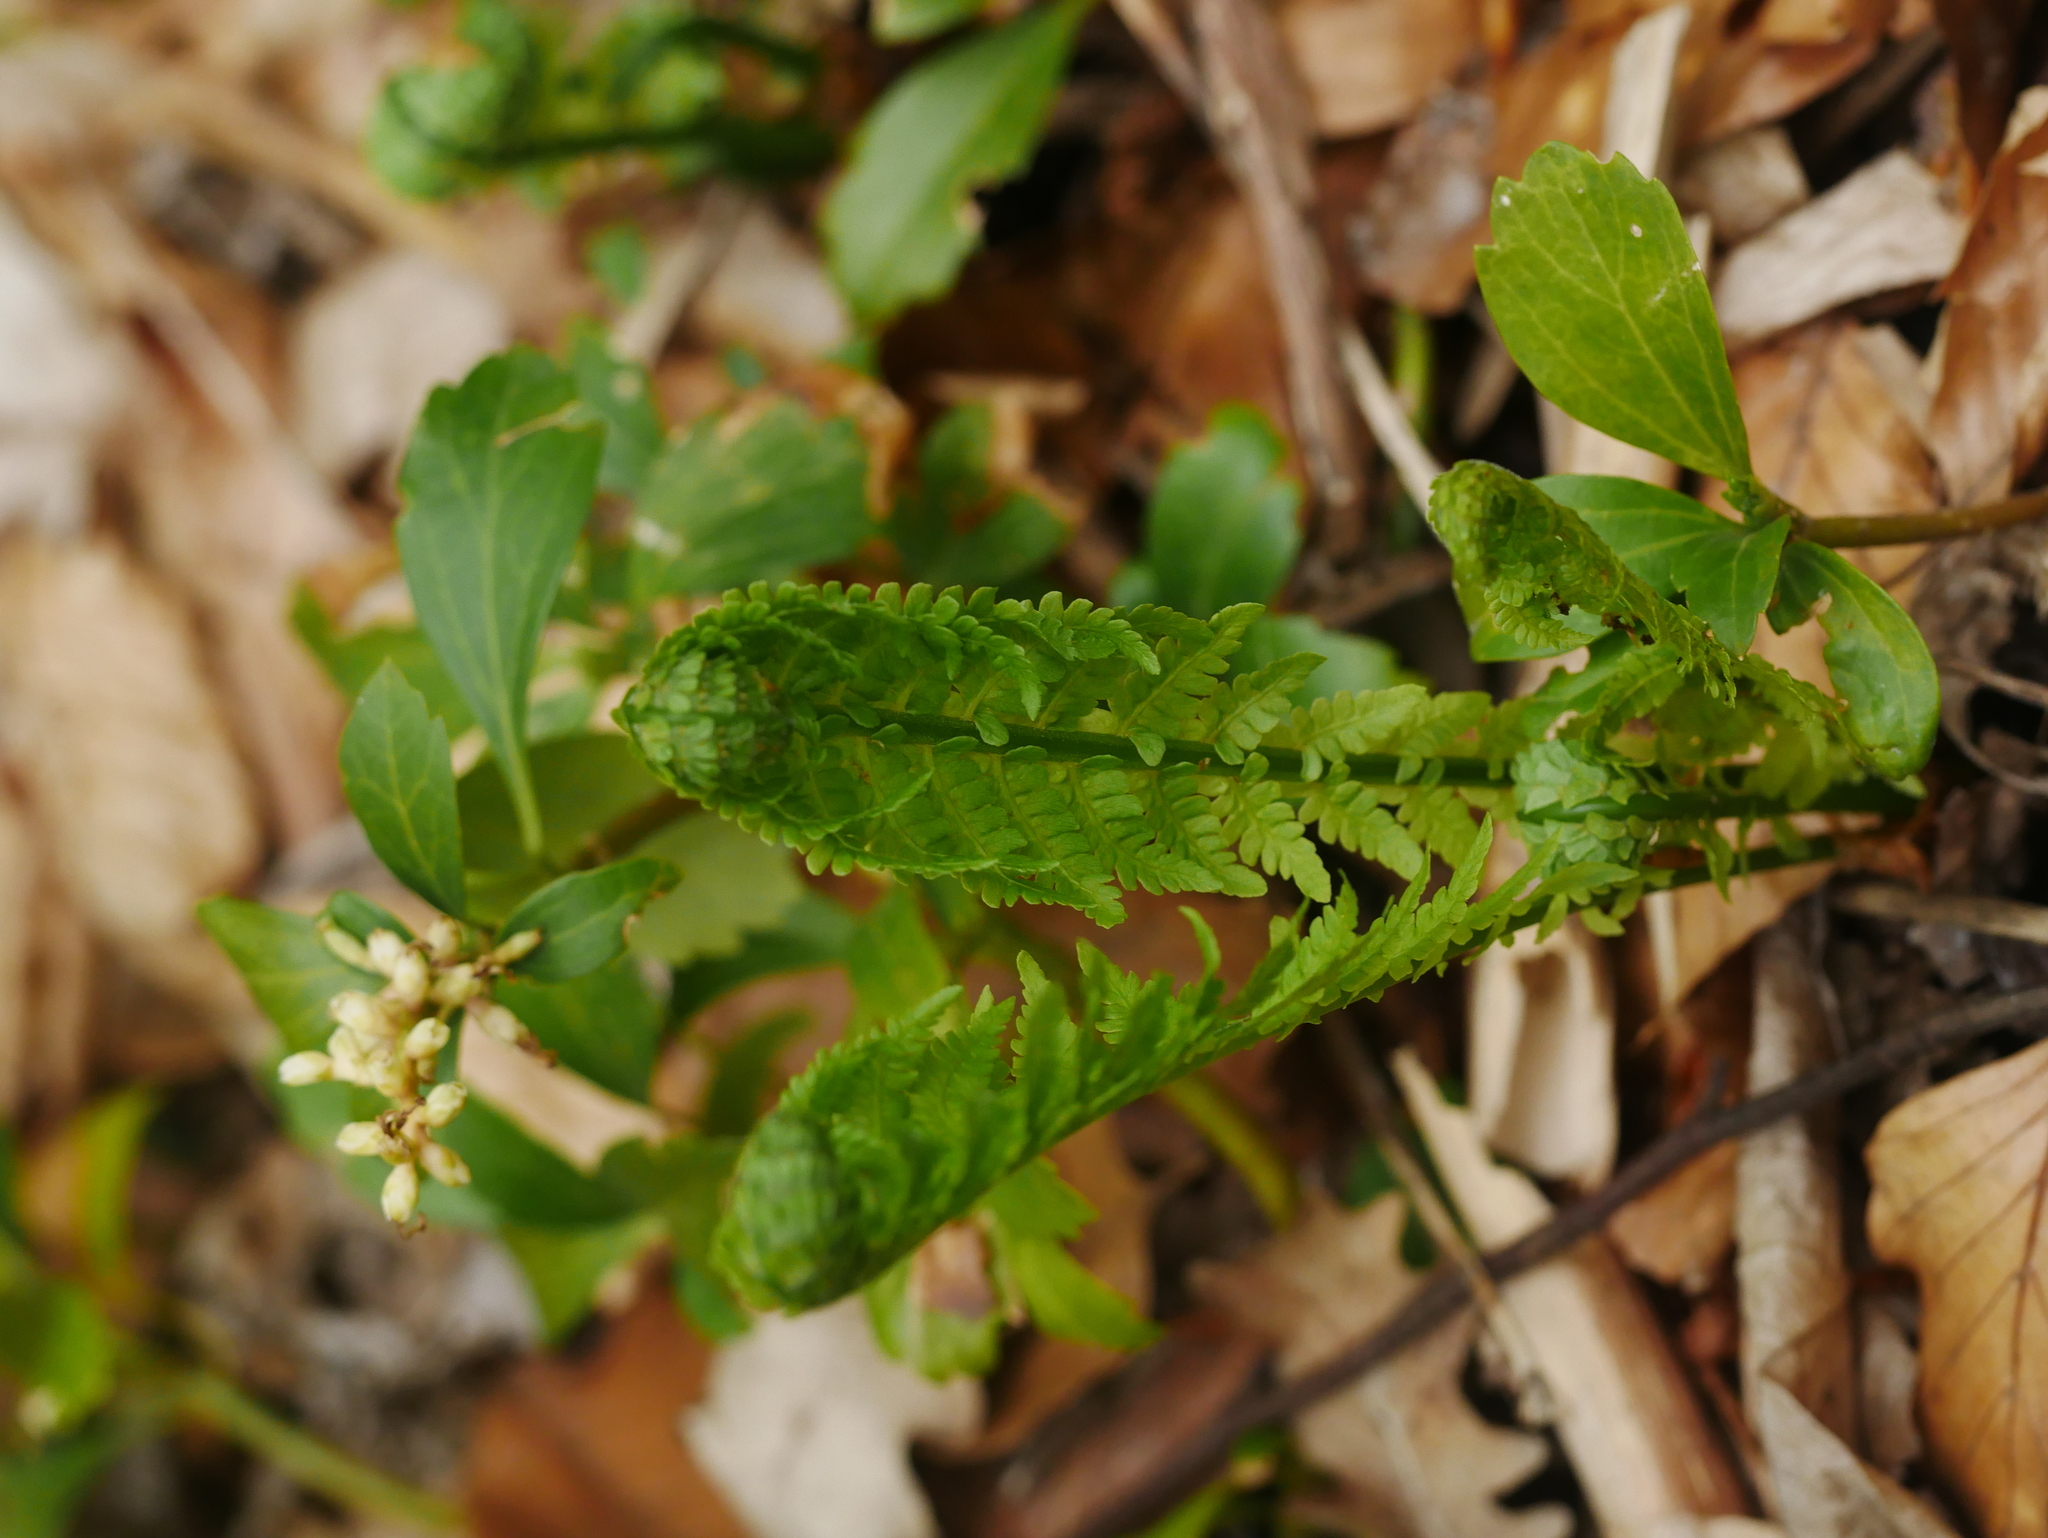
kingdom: Plantae
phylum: Tracheophyta
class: Polypodiopsida
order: Polypodiales
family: Onocleaceae
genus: Matteuccia
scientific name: Matteuccia struthiopteris
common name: Ostrich fern
